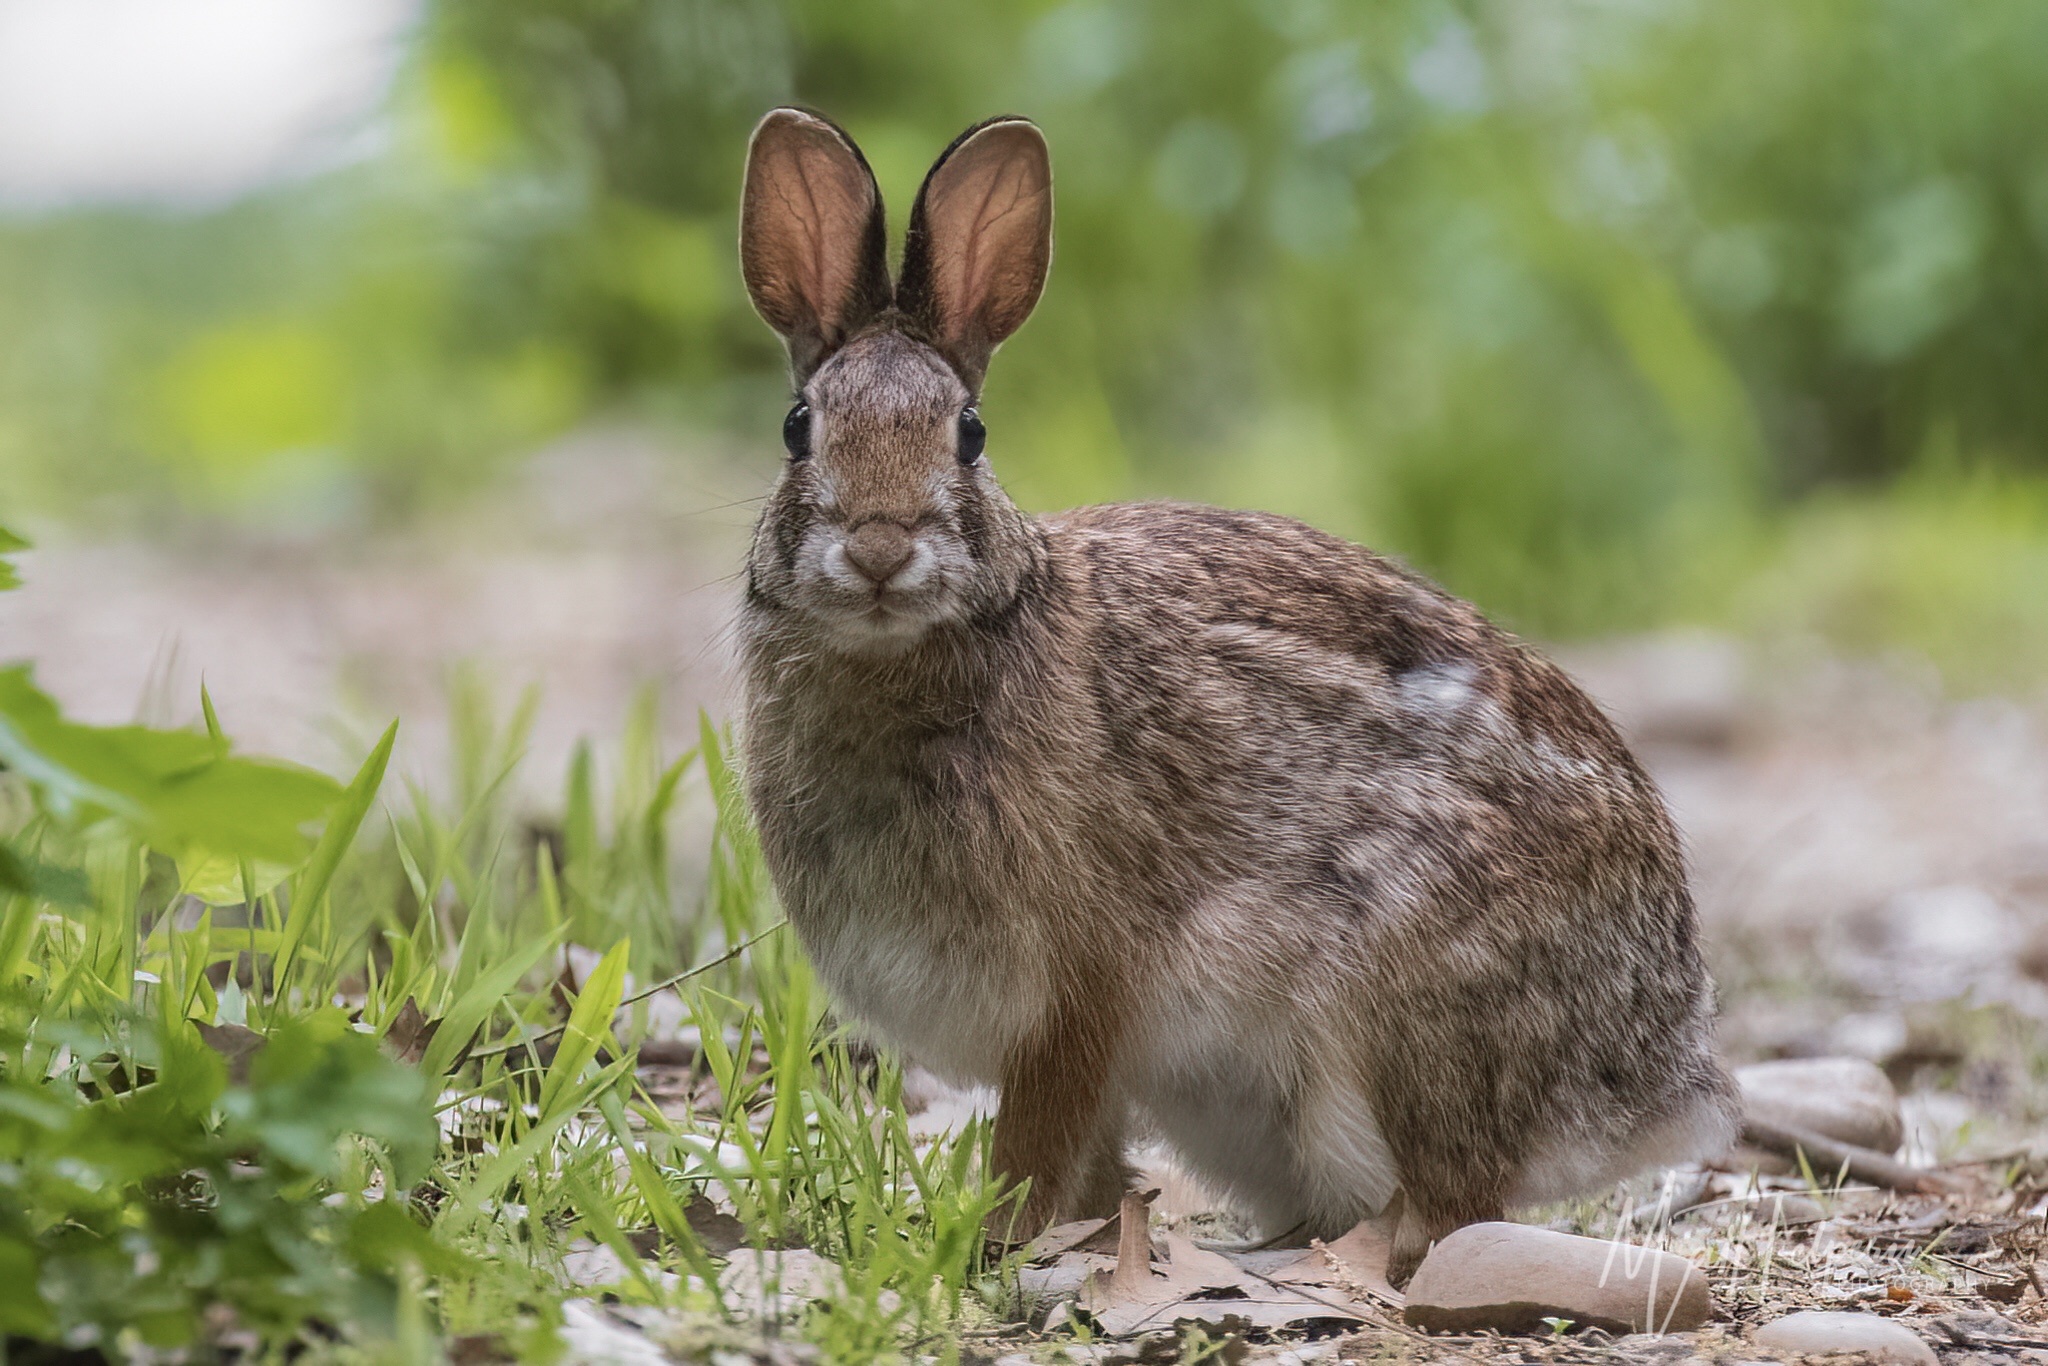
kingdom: Animalia
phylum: Chordata
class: Mammalia
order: Lagomorpha
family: Leporidae
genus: Sylvilagus
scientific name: Sylvilagus floridanus
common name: Eastern cottontail
